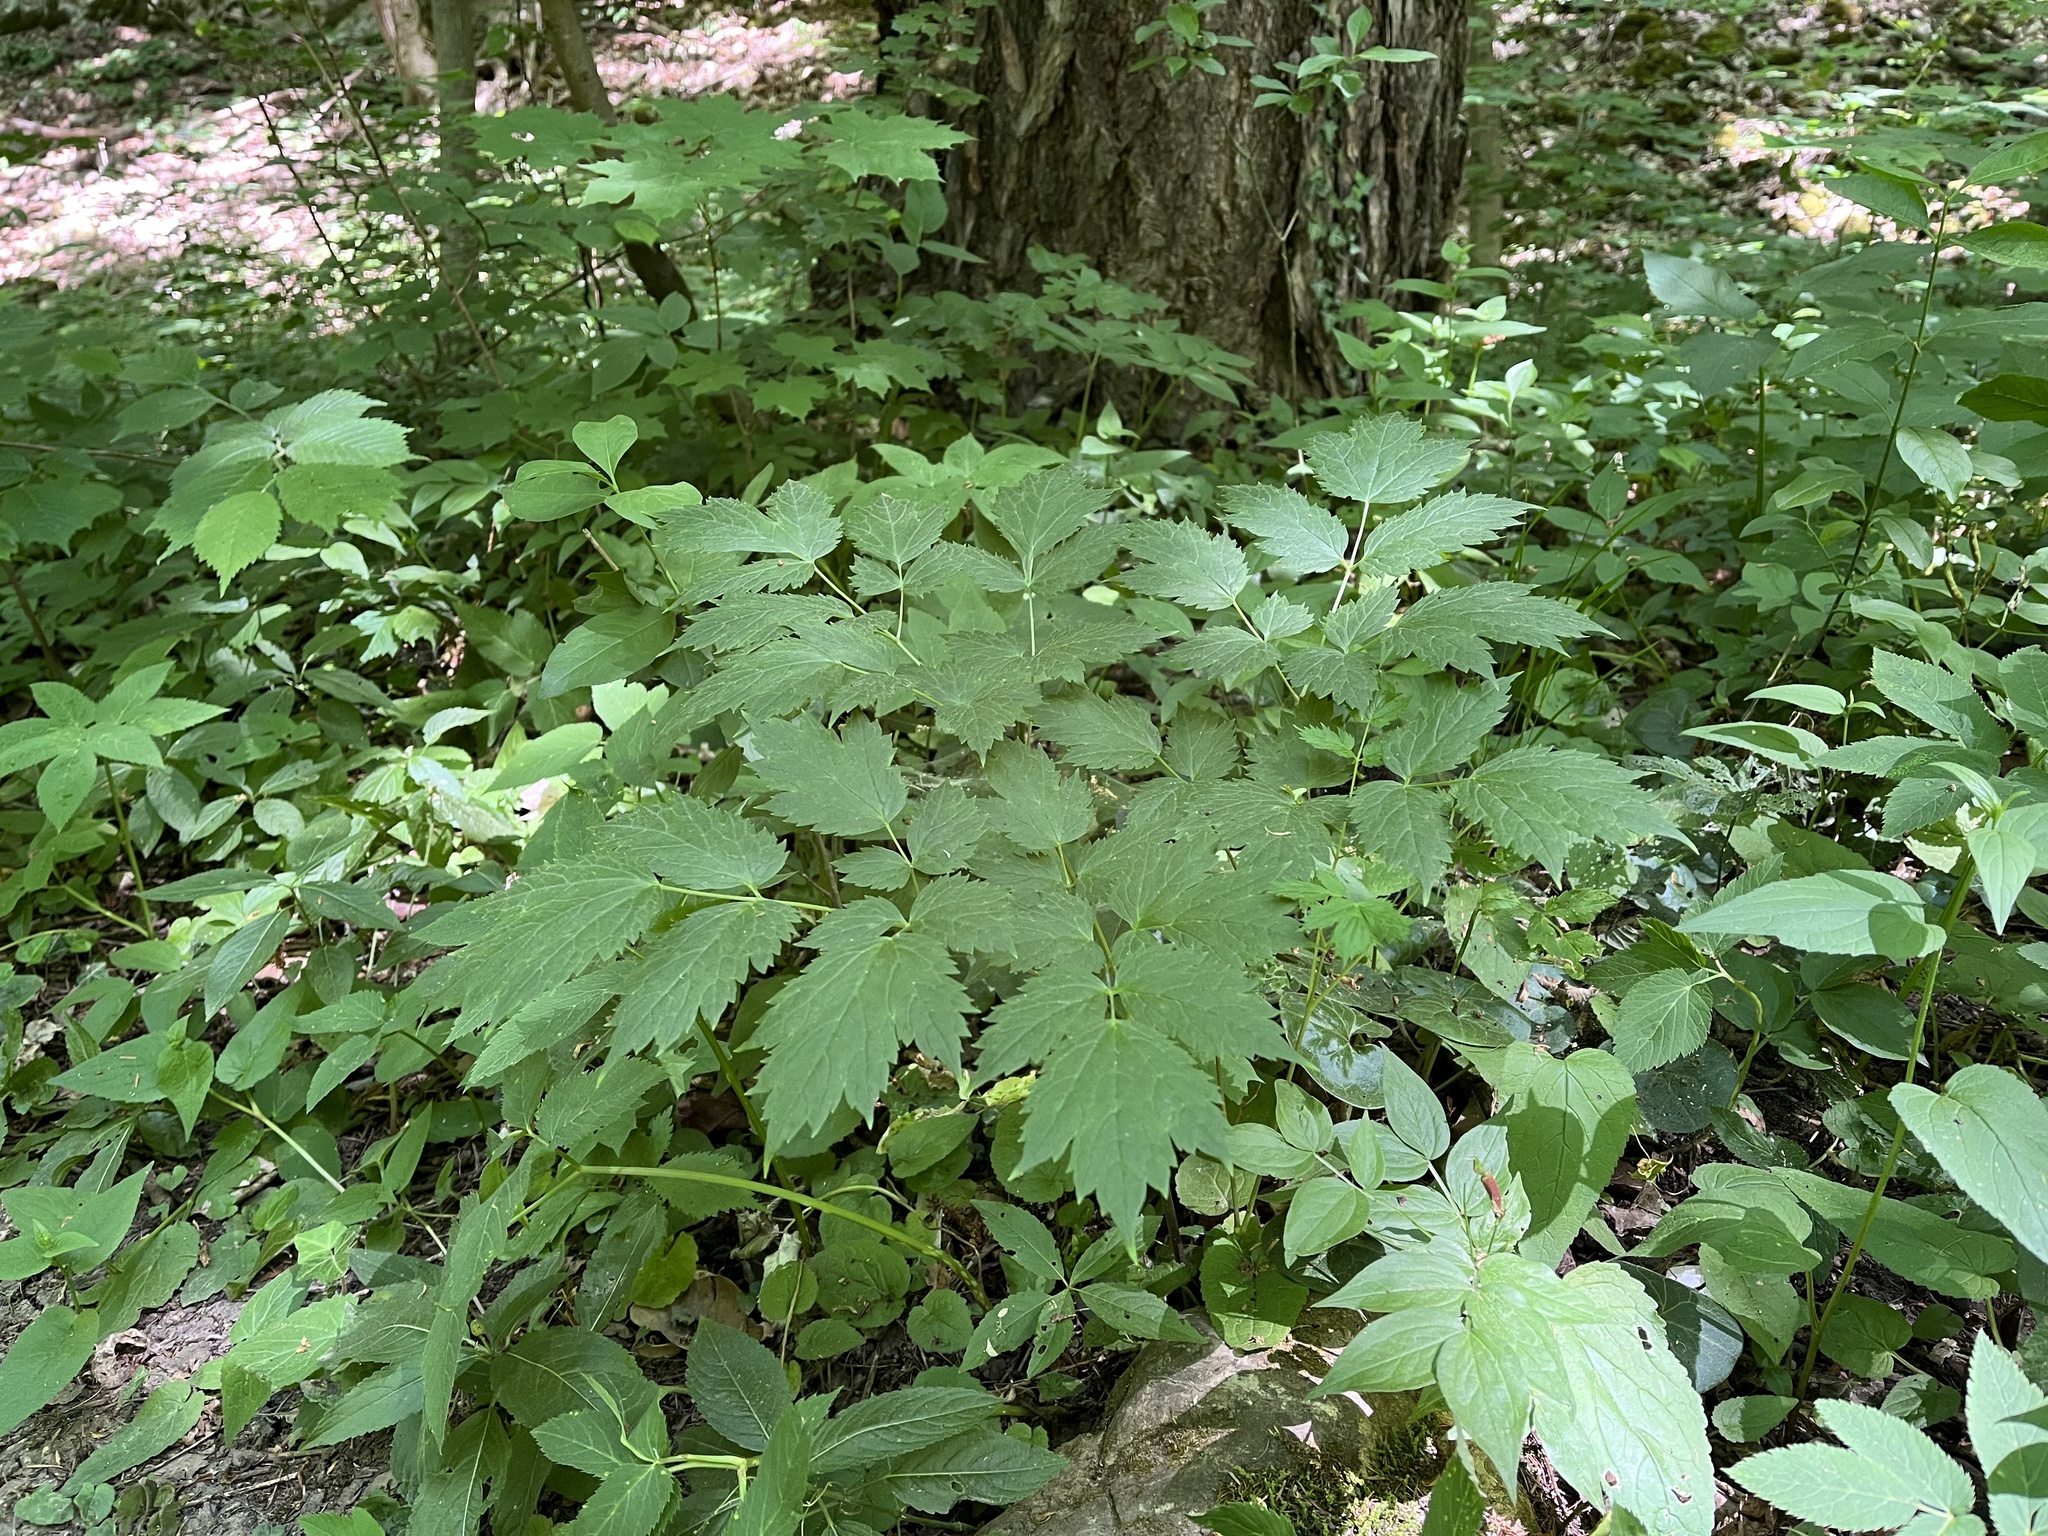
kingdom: Plantae
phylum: Tracheophyta
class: Magnoliopsida
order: Ranunculales
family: Ranunculaceae
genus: Actaea
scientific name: Actaea spicata
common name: Baneberry
